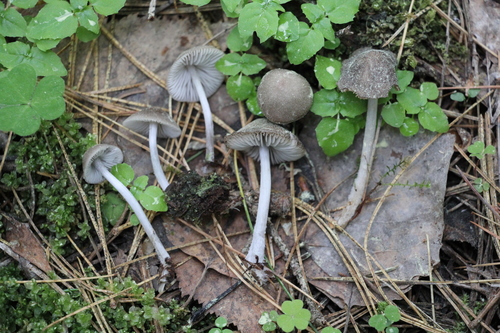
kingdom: Fungi
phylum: Basidiomycota
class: Agaricomycetes
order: Agaricales
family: Mycenaceae
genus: Mycena
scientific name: Mycena niveipes
